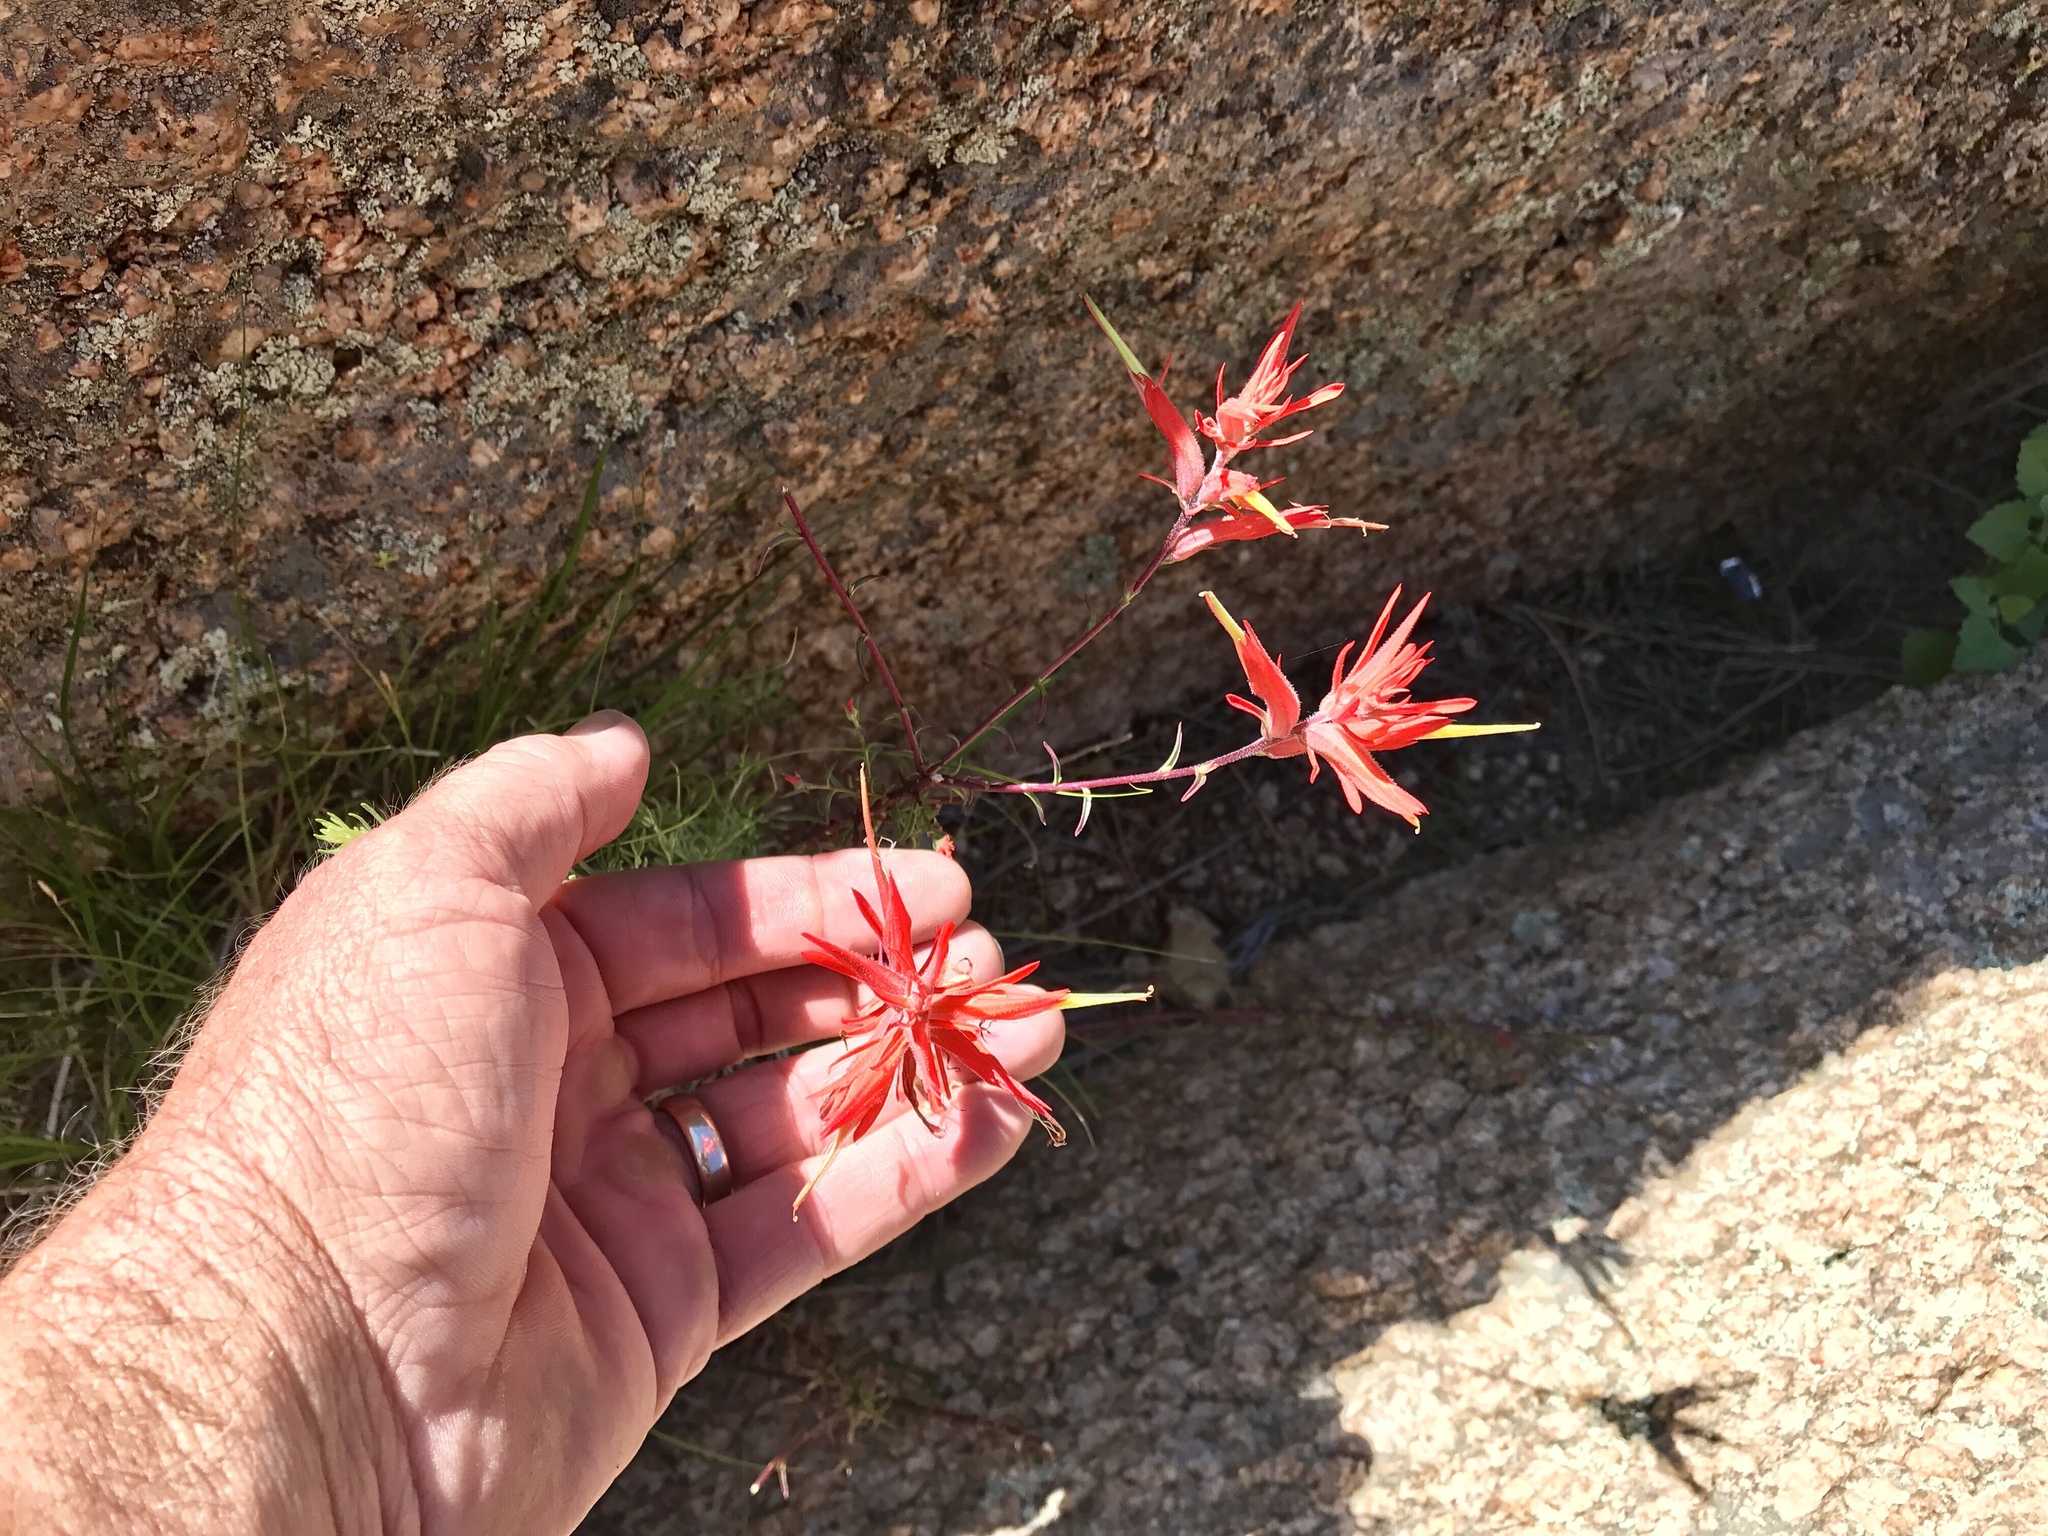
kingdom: Plantae
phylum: Tracheophyta
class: Magnoliopsida
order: Lamiales
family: Orobanchaceae
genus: Castilleja
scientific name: Castilleja linariifolia
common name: Wyoming paintbrush
